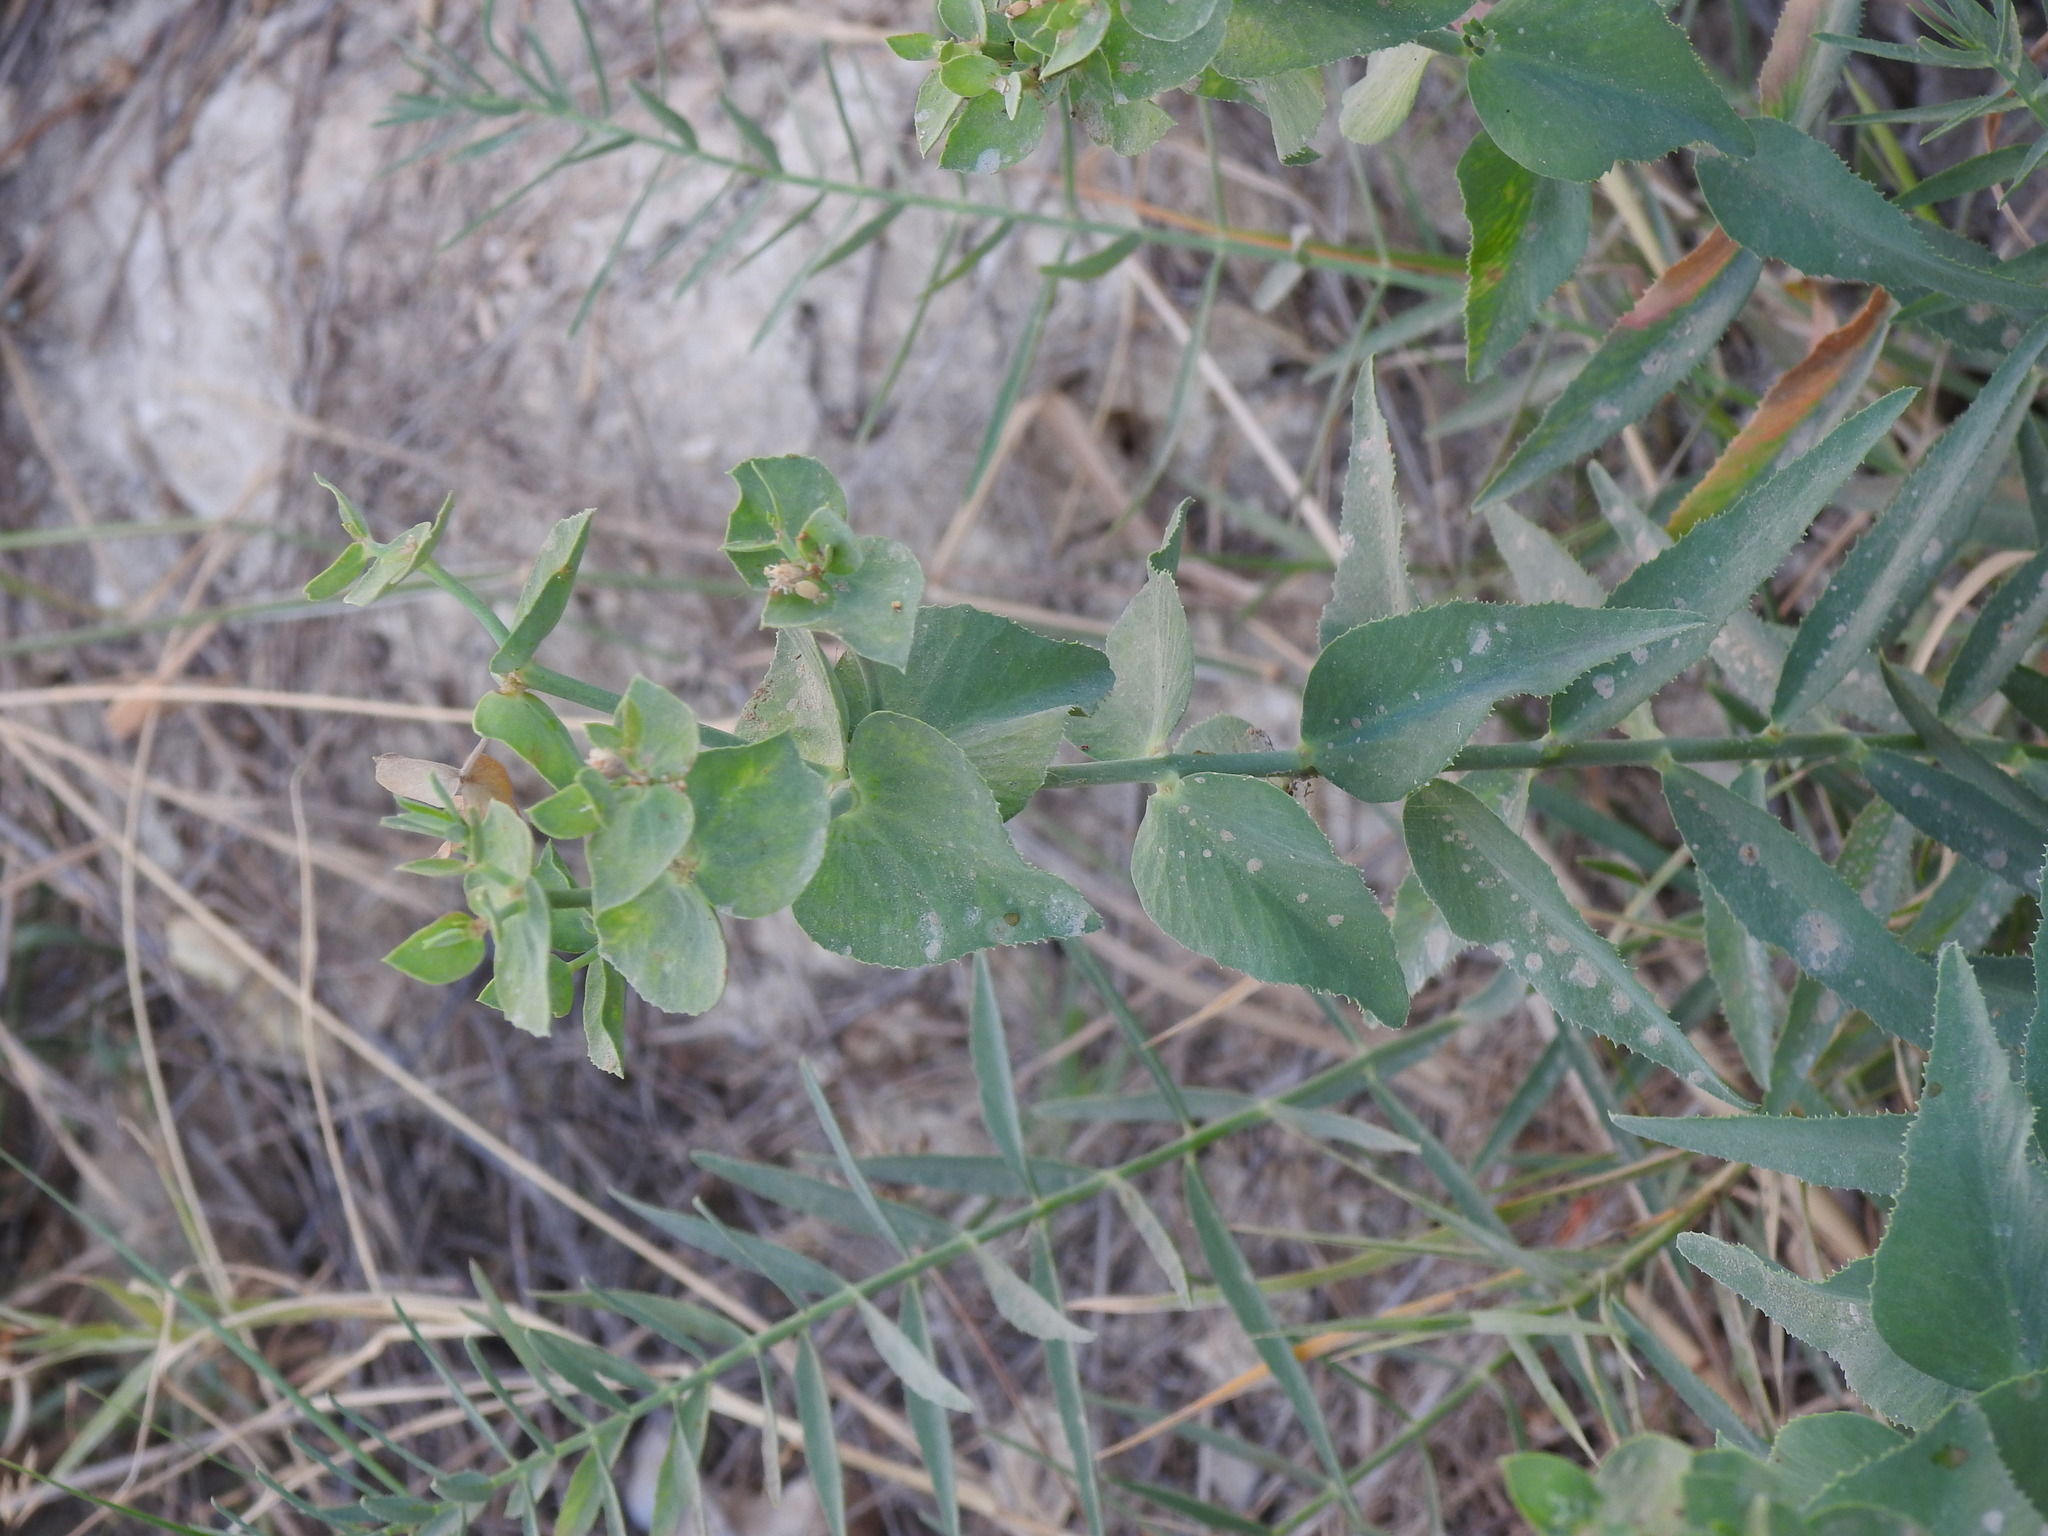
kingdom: Plantae
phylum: Tracheophyta
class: Magnoliopsida
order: Malpighiales
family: Euphorbiaceae
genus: Euphorbia
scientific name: Euphorbia serrata
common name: Serrate spurge
